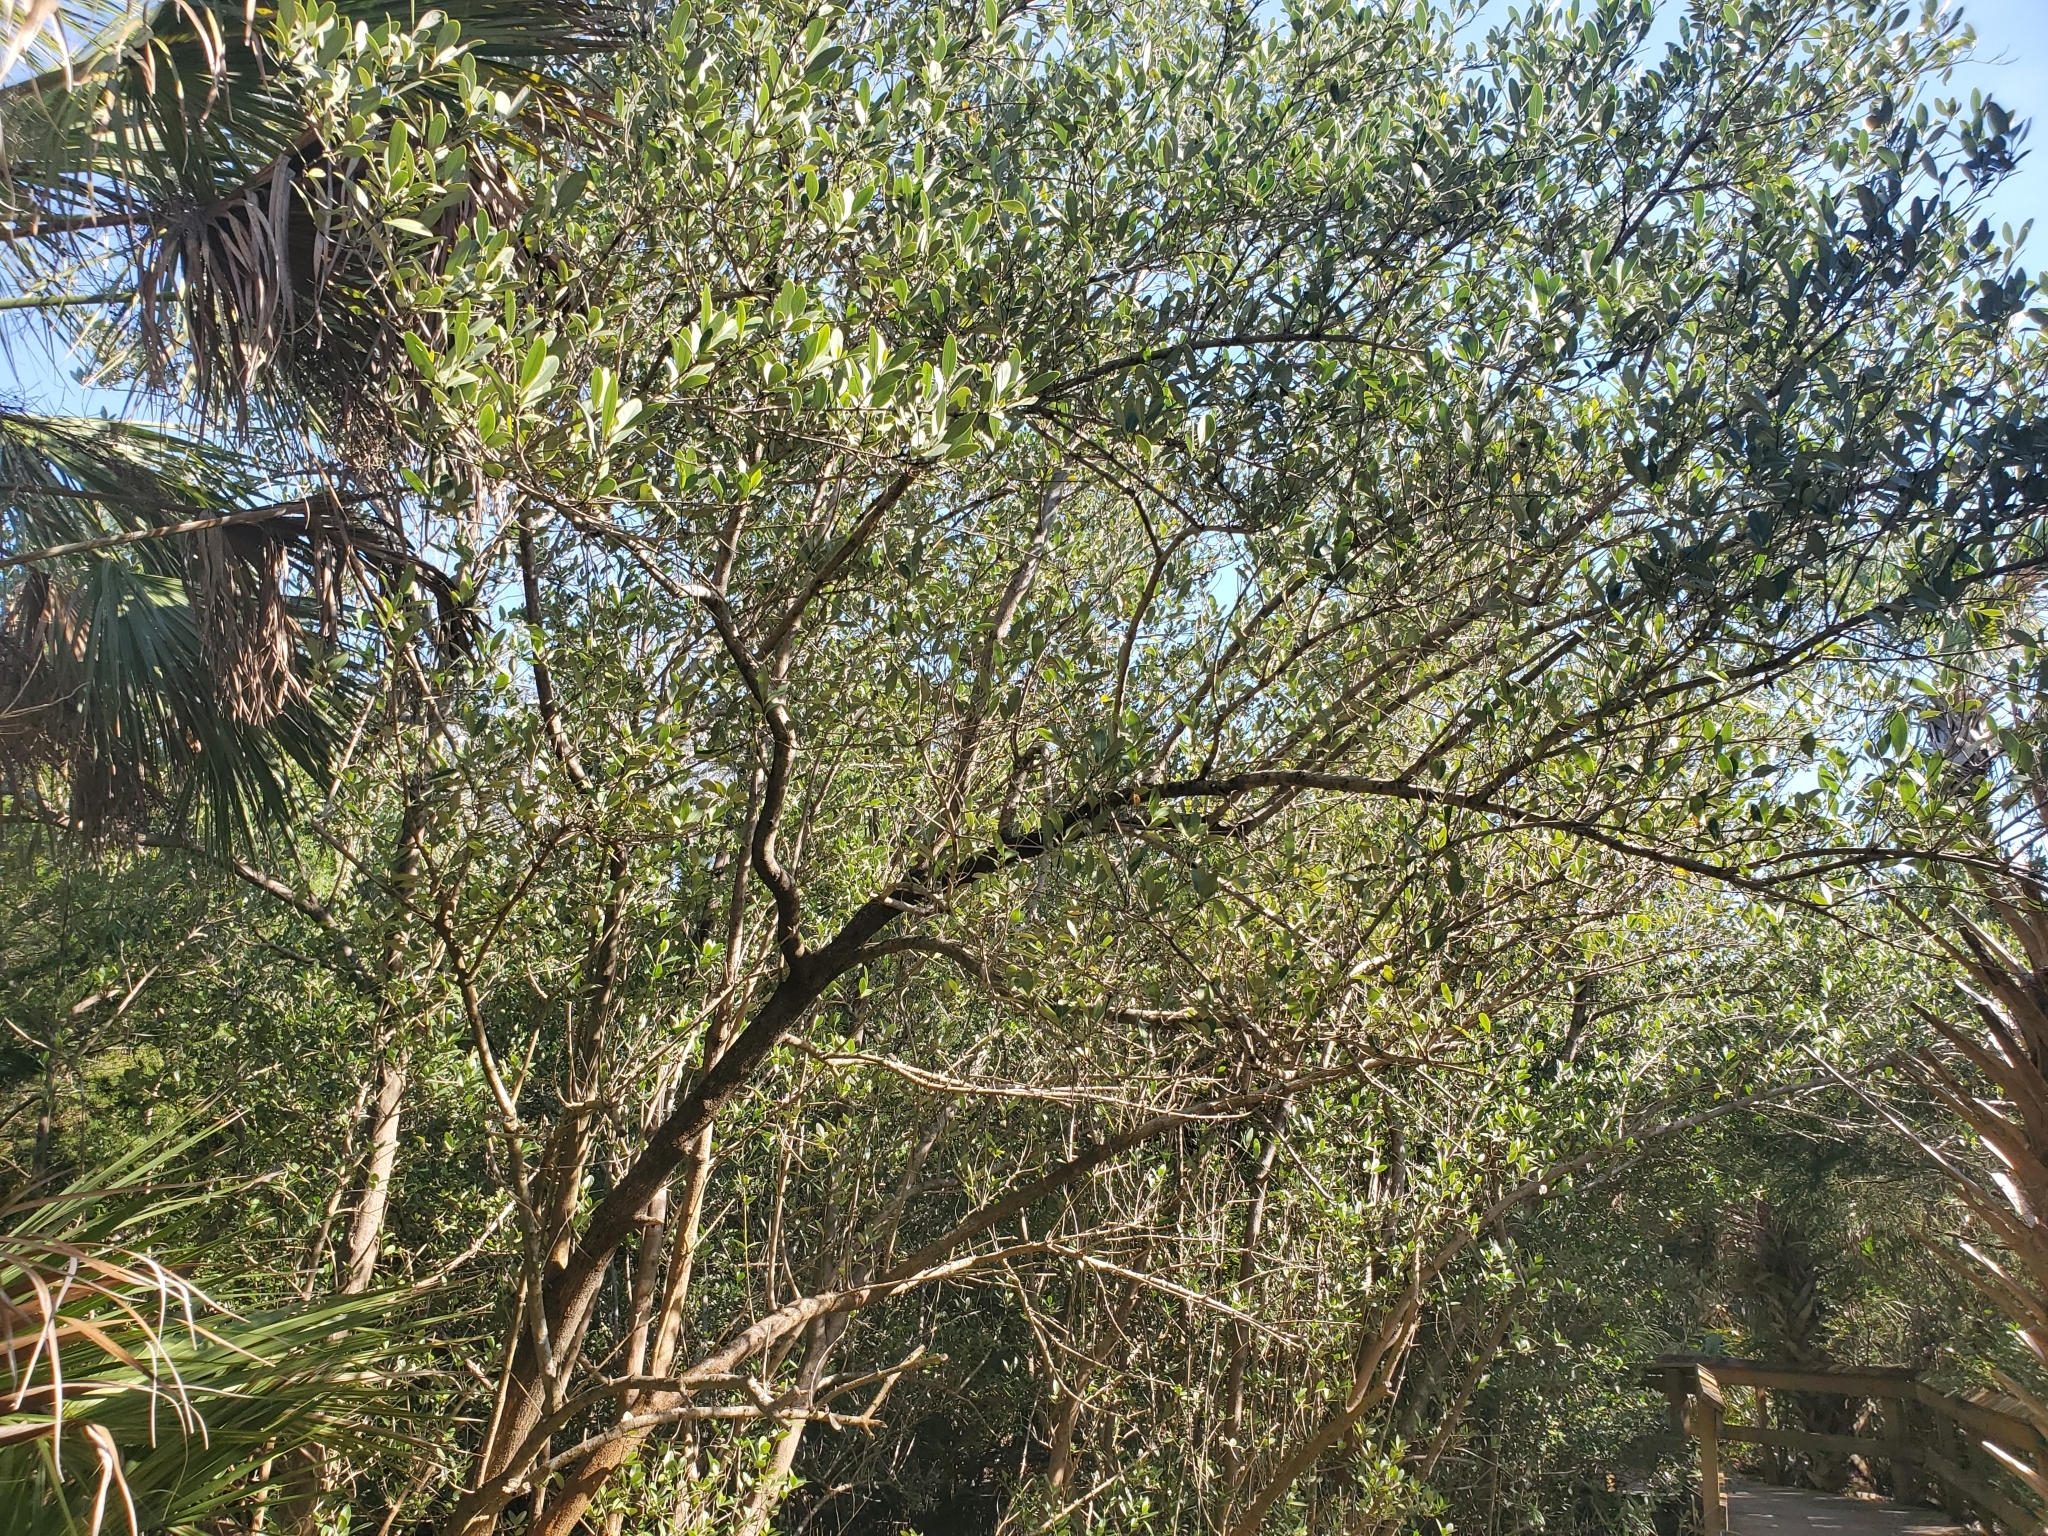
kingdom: Plantae
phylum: Tracheophyta
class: Magnoliopsida
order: Lamiales
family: Acanthaceae
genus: Avicennia
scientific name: Avicennia germinans
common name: Black mangrove
